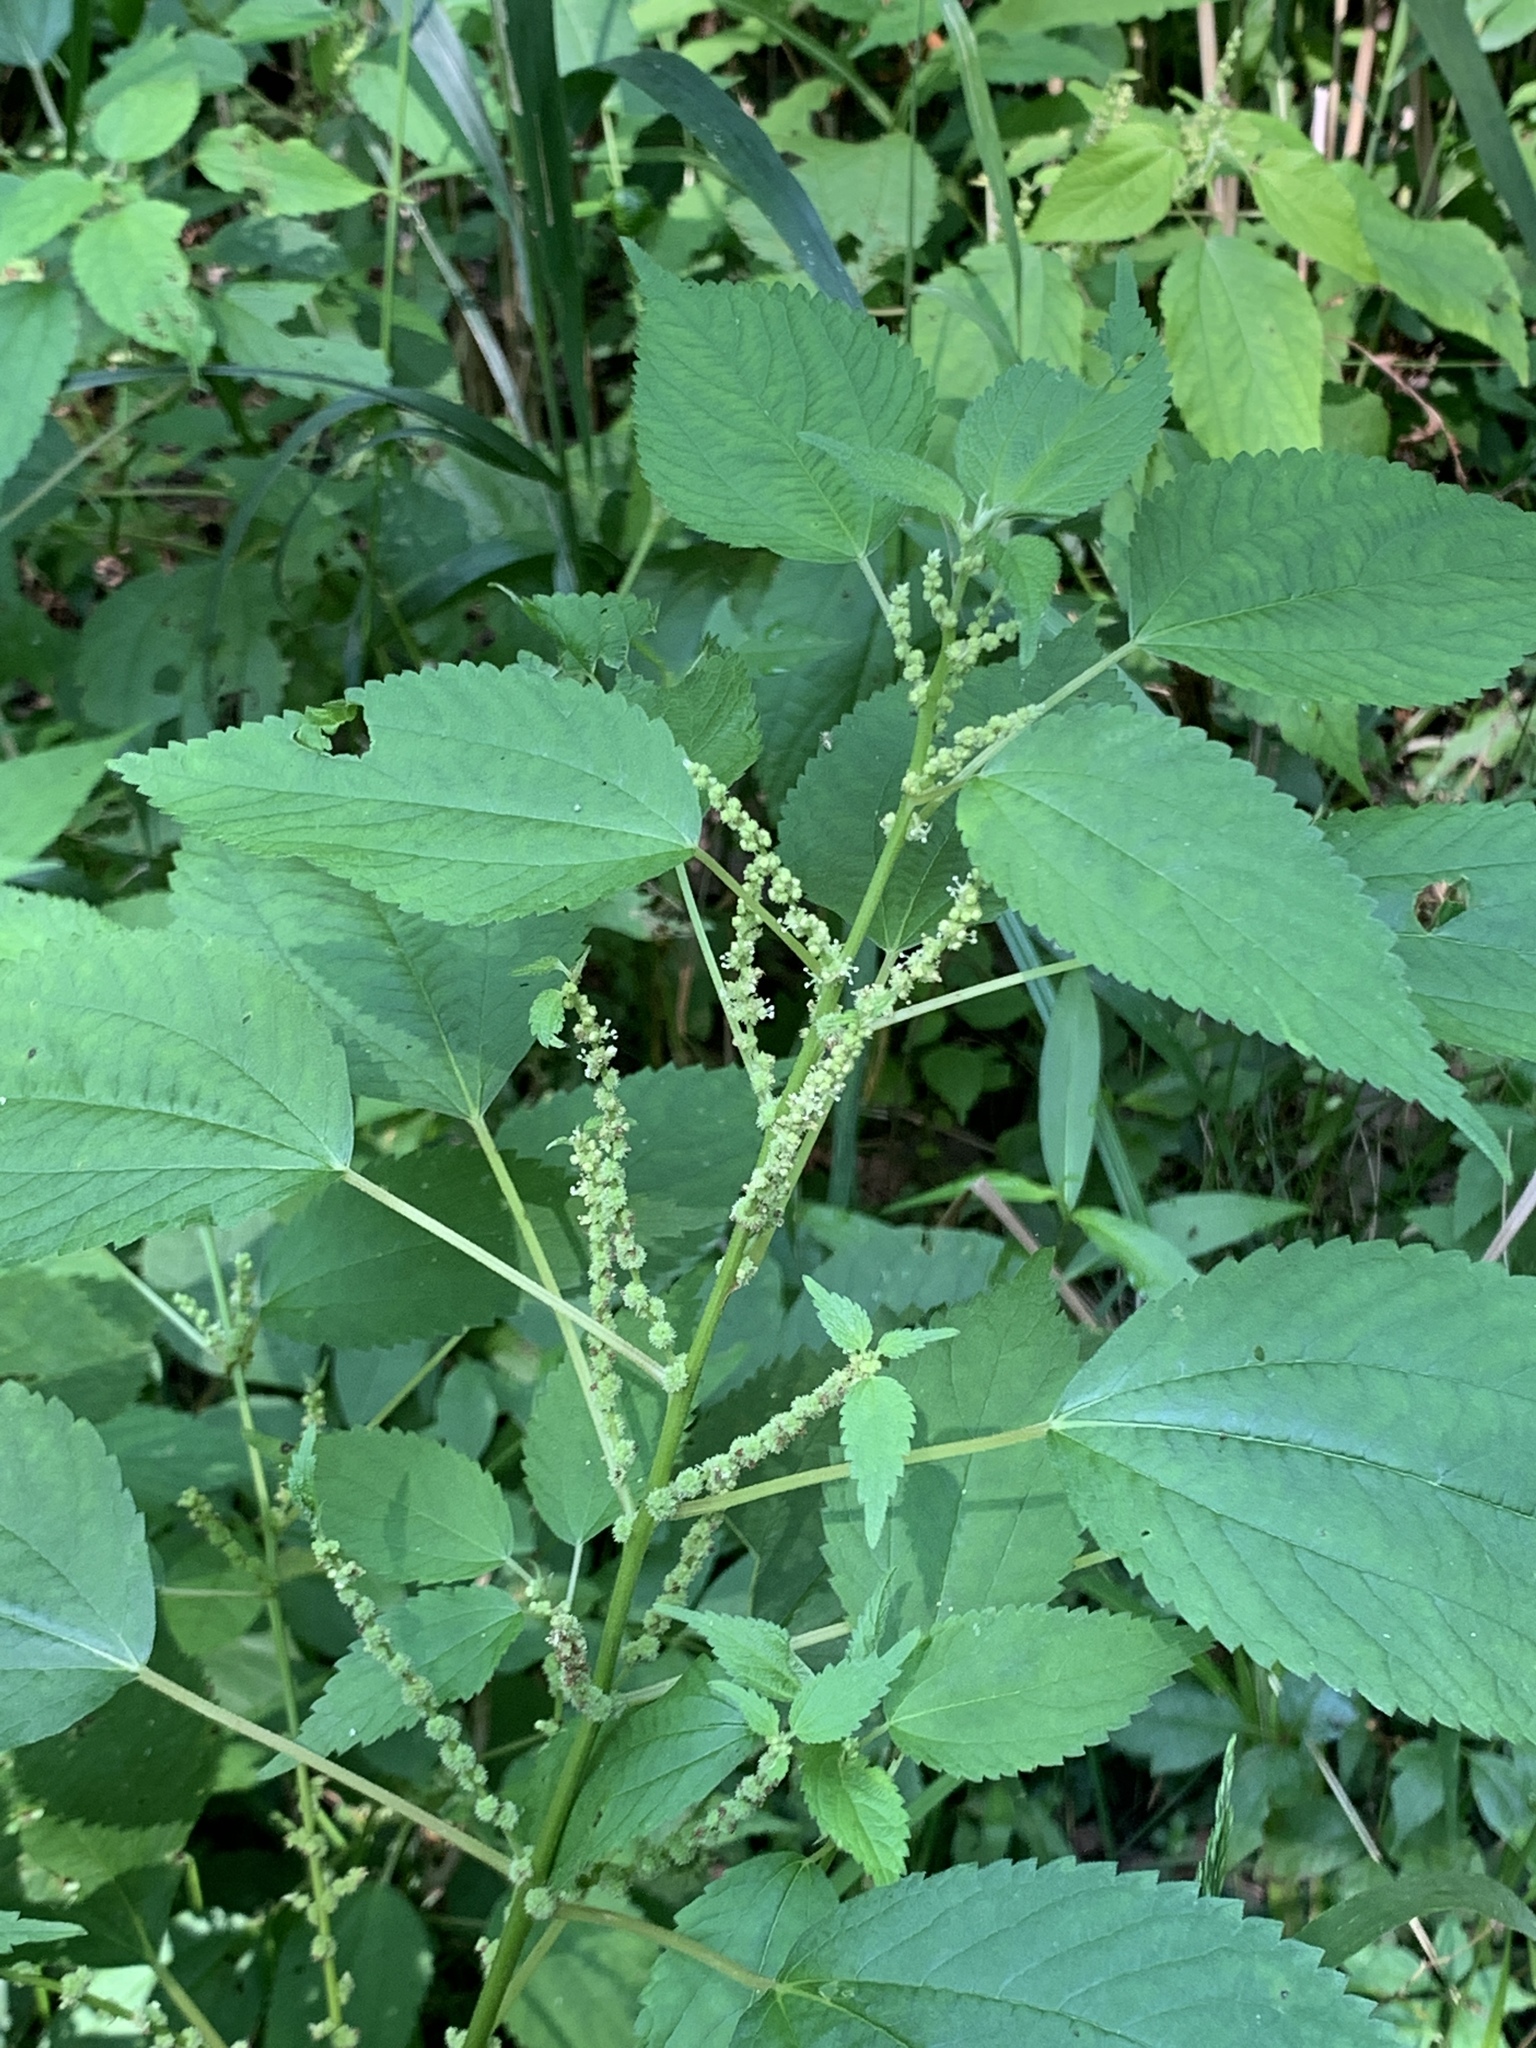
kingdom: Plantae
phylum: Tracheophyta
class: Magnoliopsida
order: Rosales
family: Urticaceae
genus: Boehmeria
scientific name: Boehmeria cylindrica
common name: Bog-hemp
